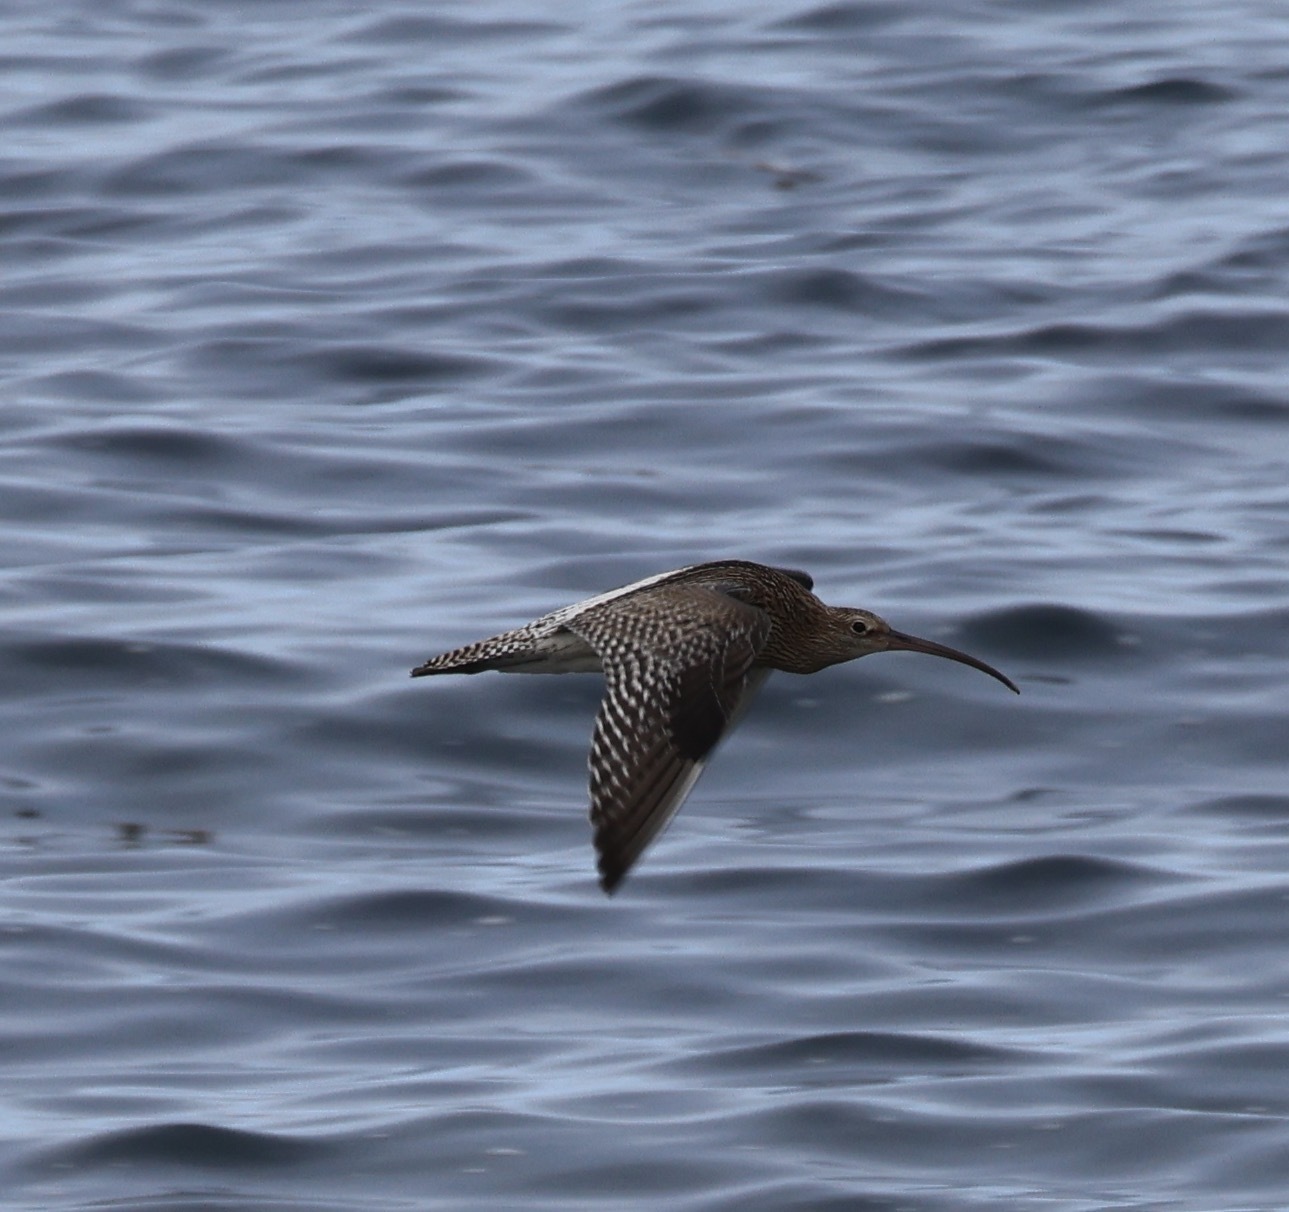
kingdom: Animalia
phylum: Chordata
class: Aves
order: Charadriiformes
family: Scolopacidae
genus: Numenius
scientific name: Numenius arquata
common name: Eurasian curlew
